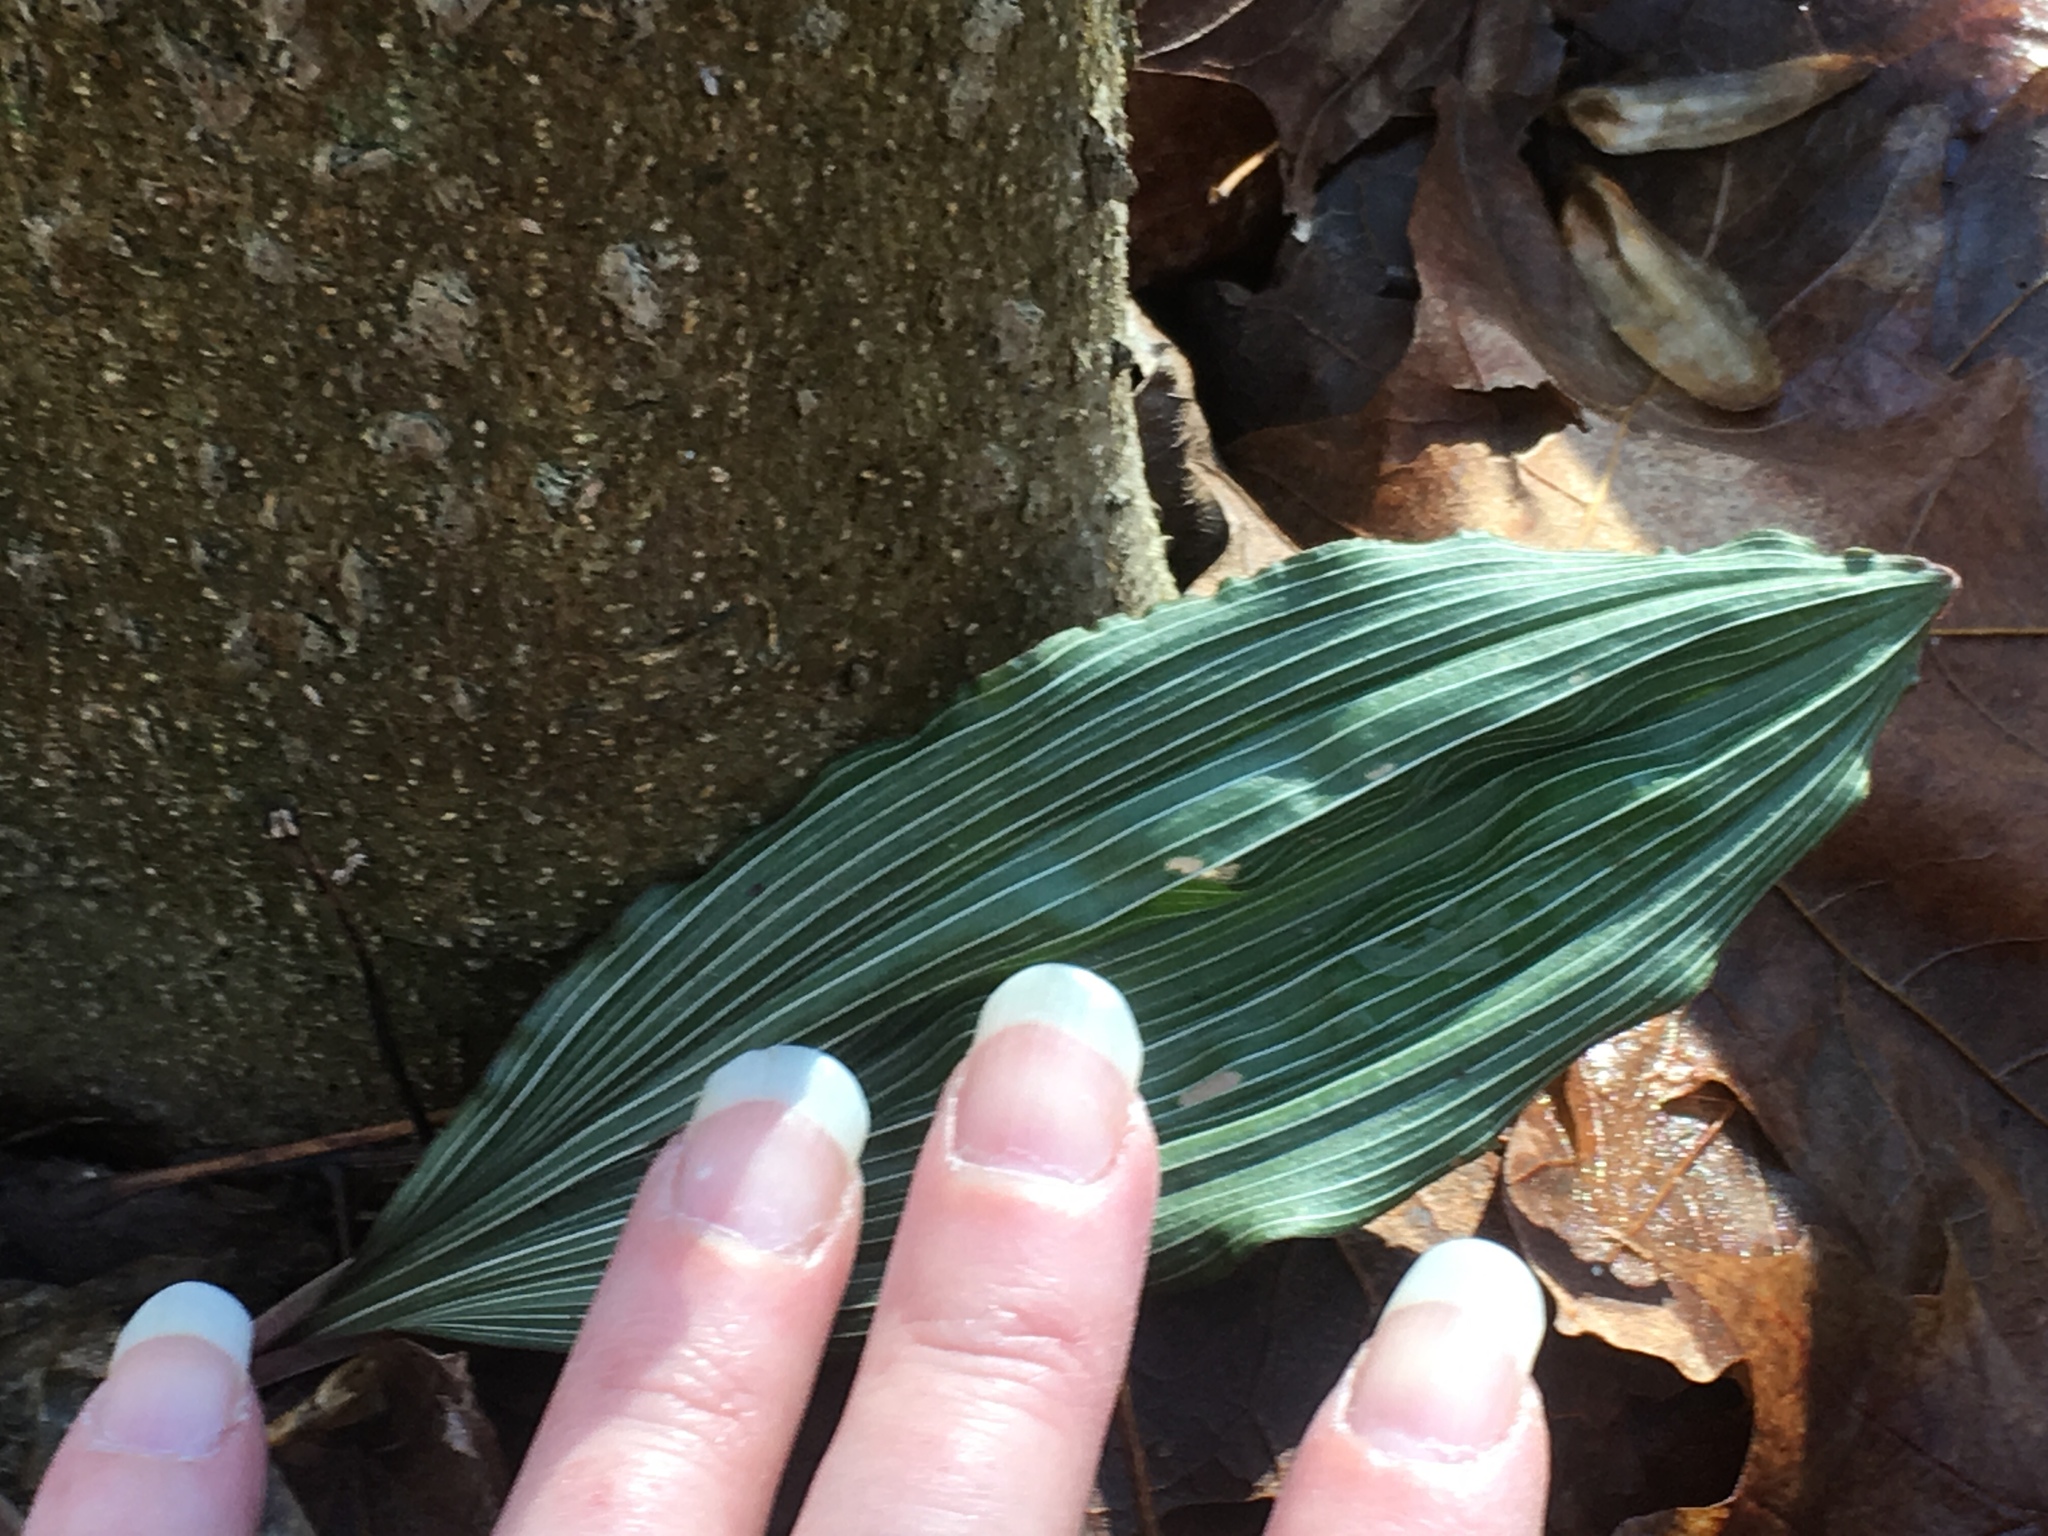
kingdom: Plantae
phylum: Tracheophyta
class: Liliopsida
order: Asparagales
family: Orchidaceae
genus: Aplectrum
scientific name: Aplectrum hyemale
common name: Adam-and-eve
